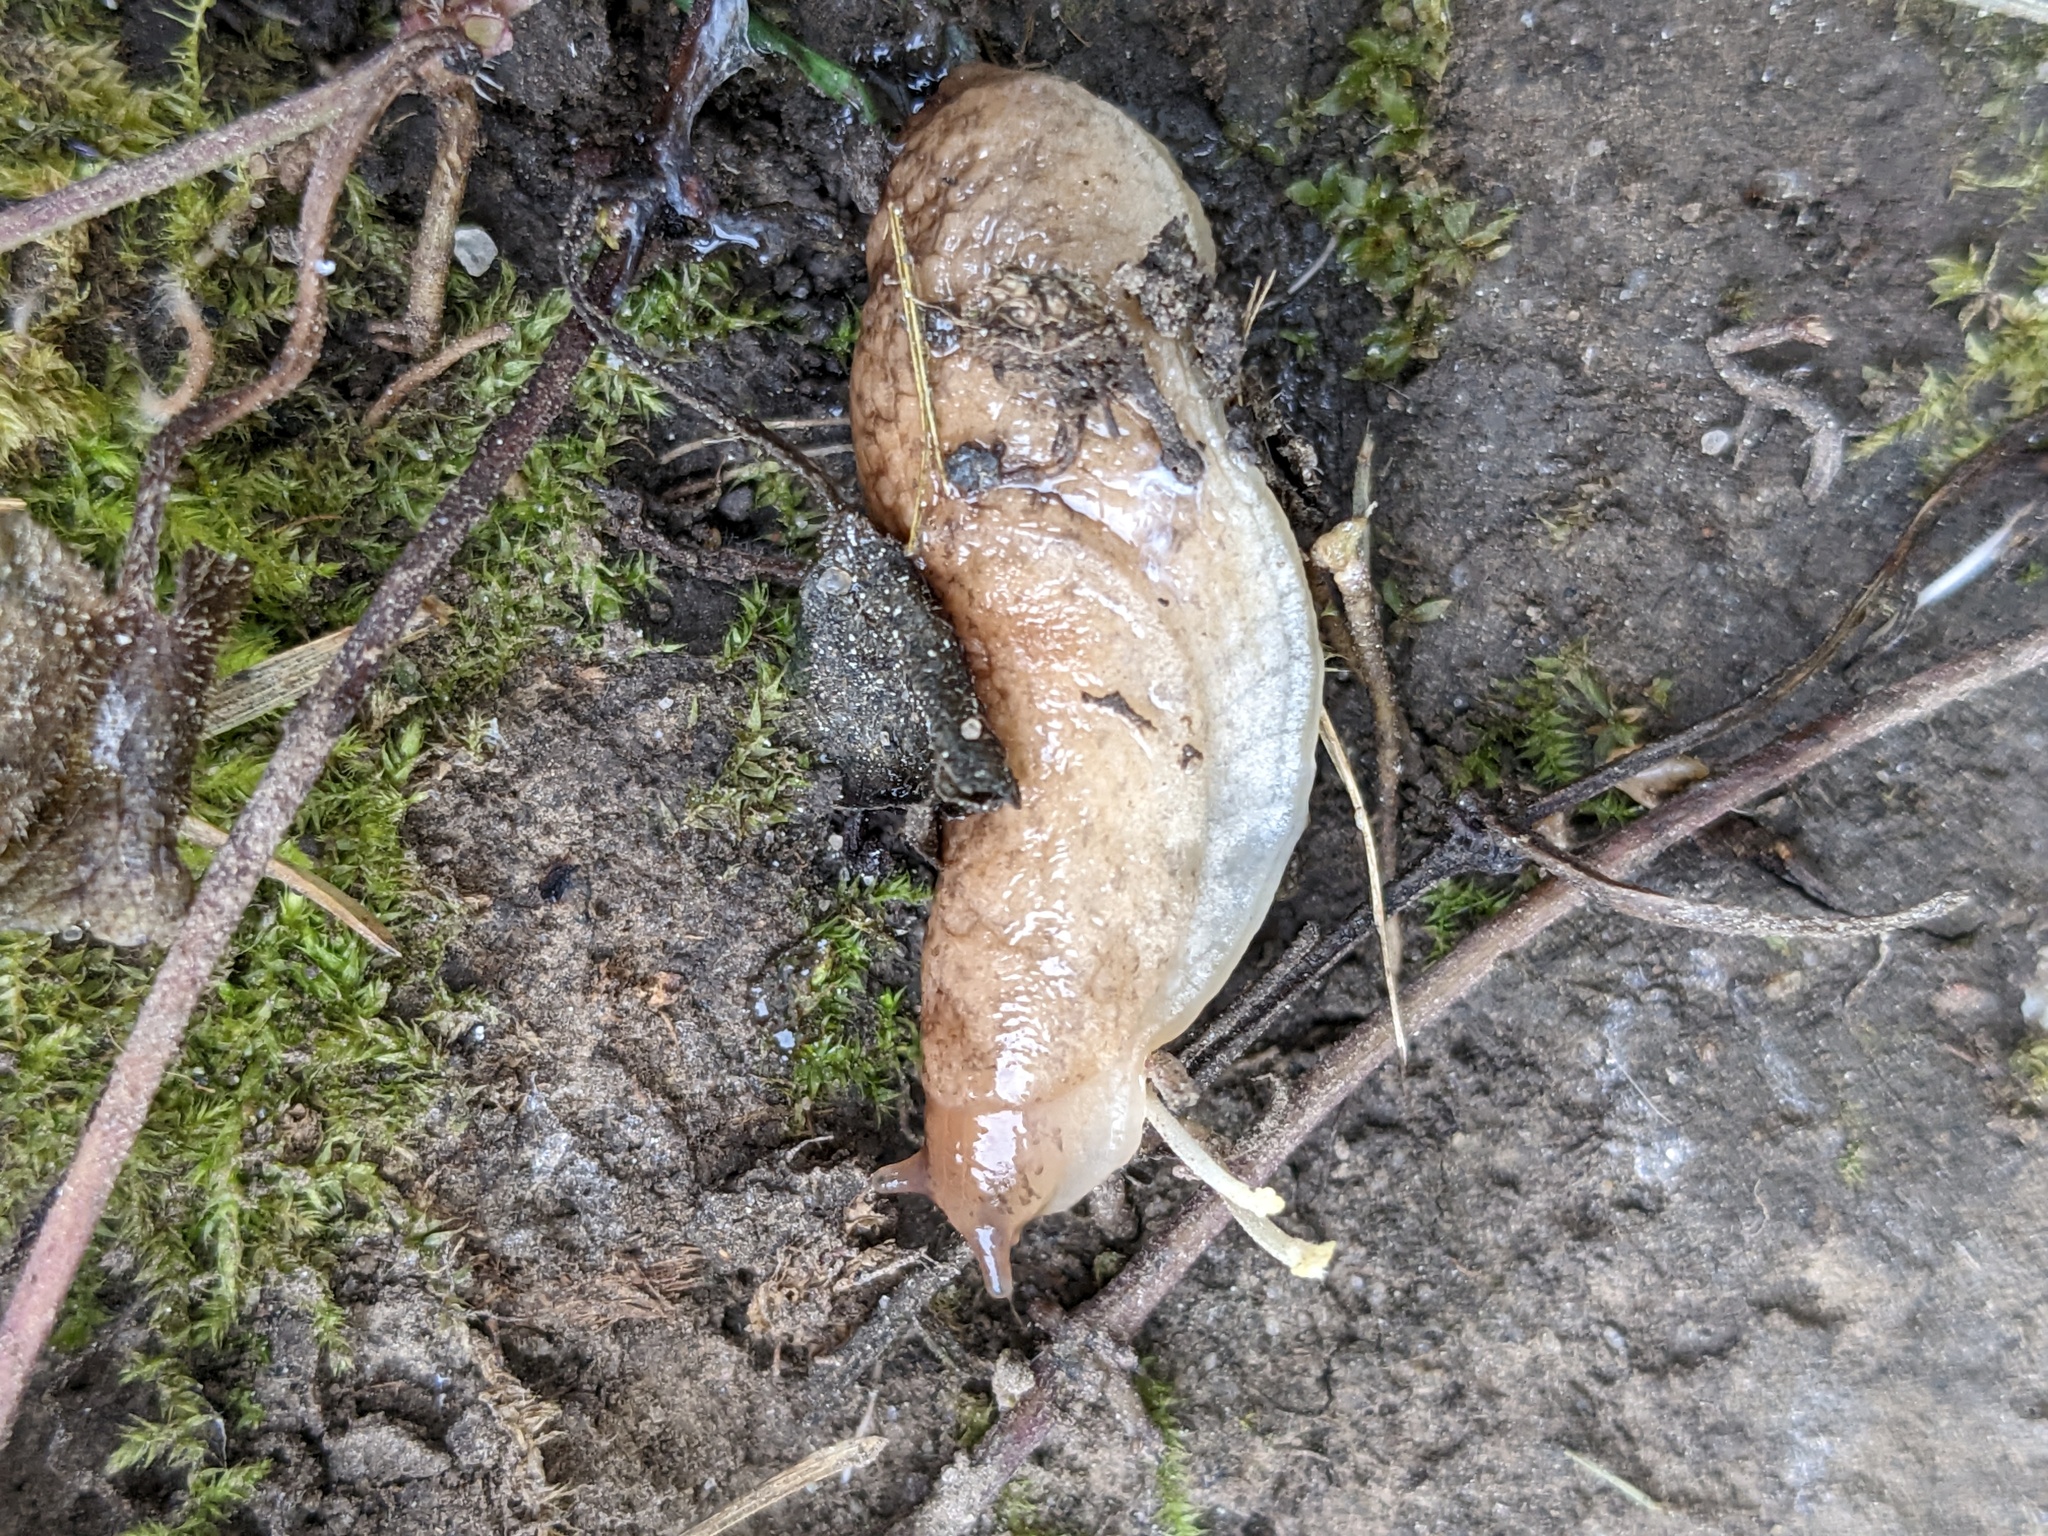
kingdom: Animalia
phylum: Mollusca
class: Gastropoda
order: Stylommatophora
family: Agriolimacidae
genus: Deroceras
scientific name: Deroceras reticulatum
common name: Gray field slug
